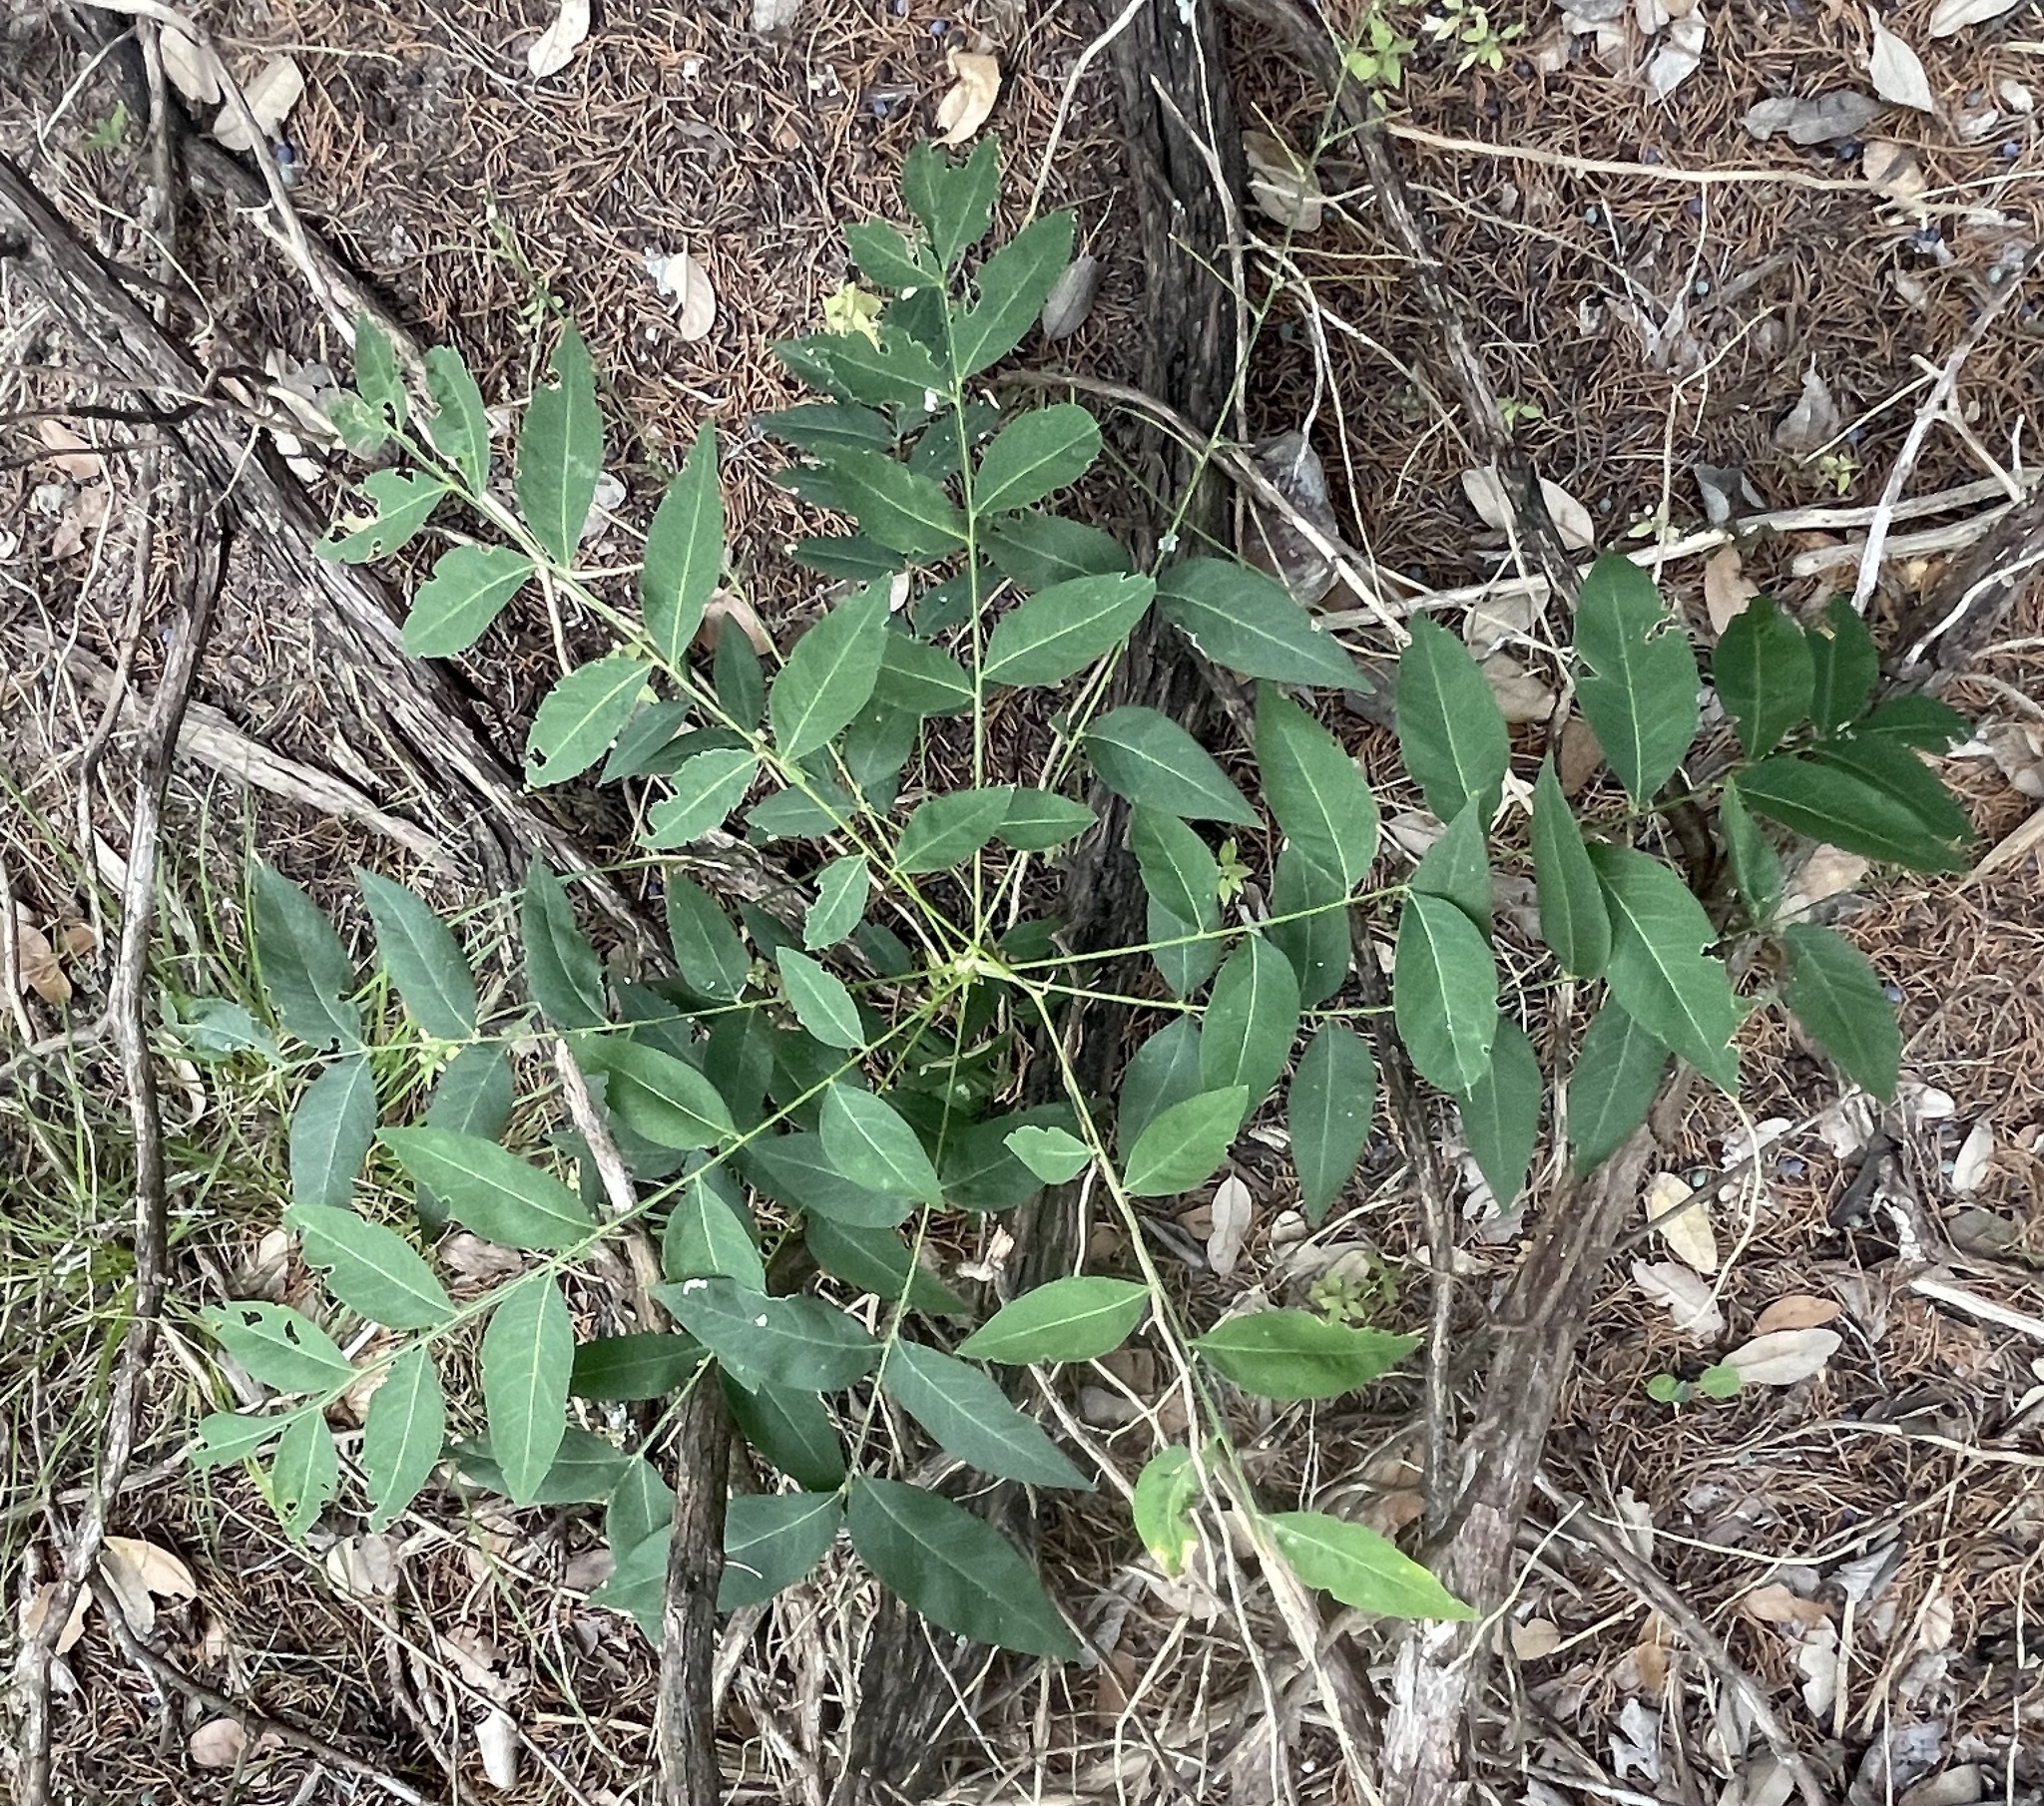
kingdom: Plantae
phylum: Tracheophyta
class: Magnoliopsida
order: Sapindales
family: Sapindaceae
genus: Sapindus
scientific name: Sapindus drummondii
